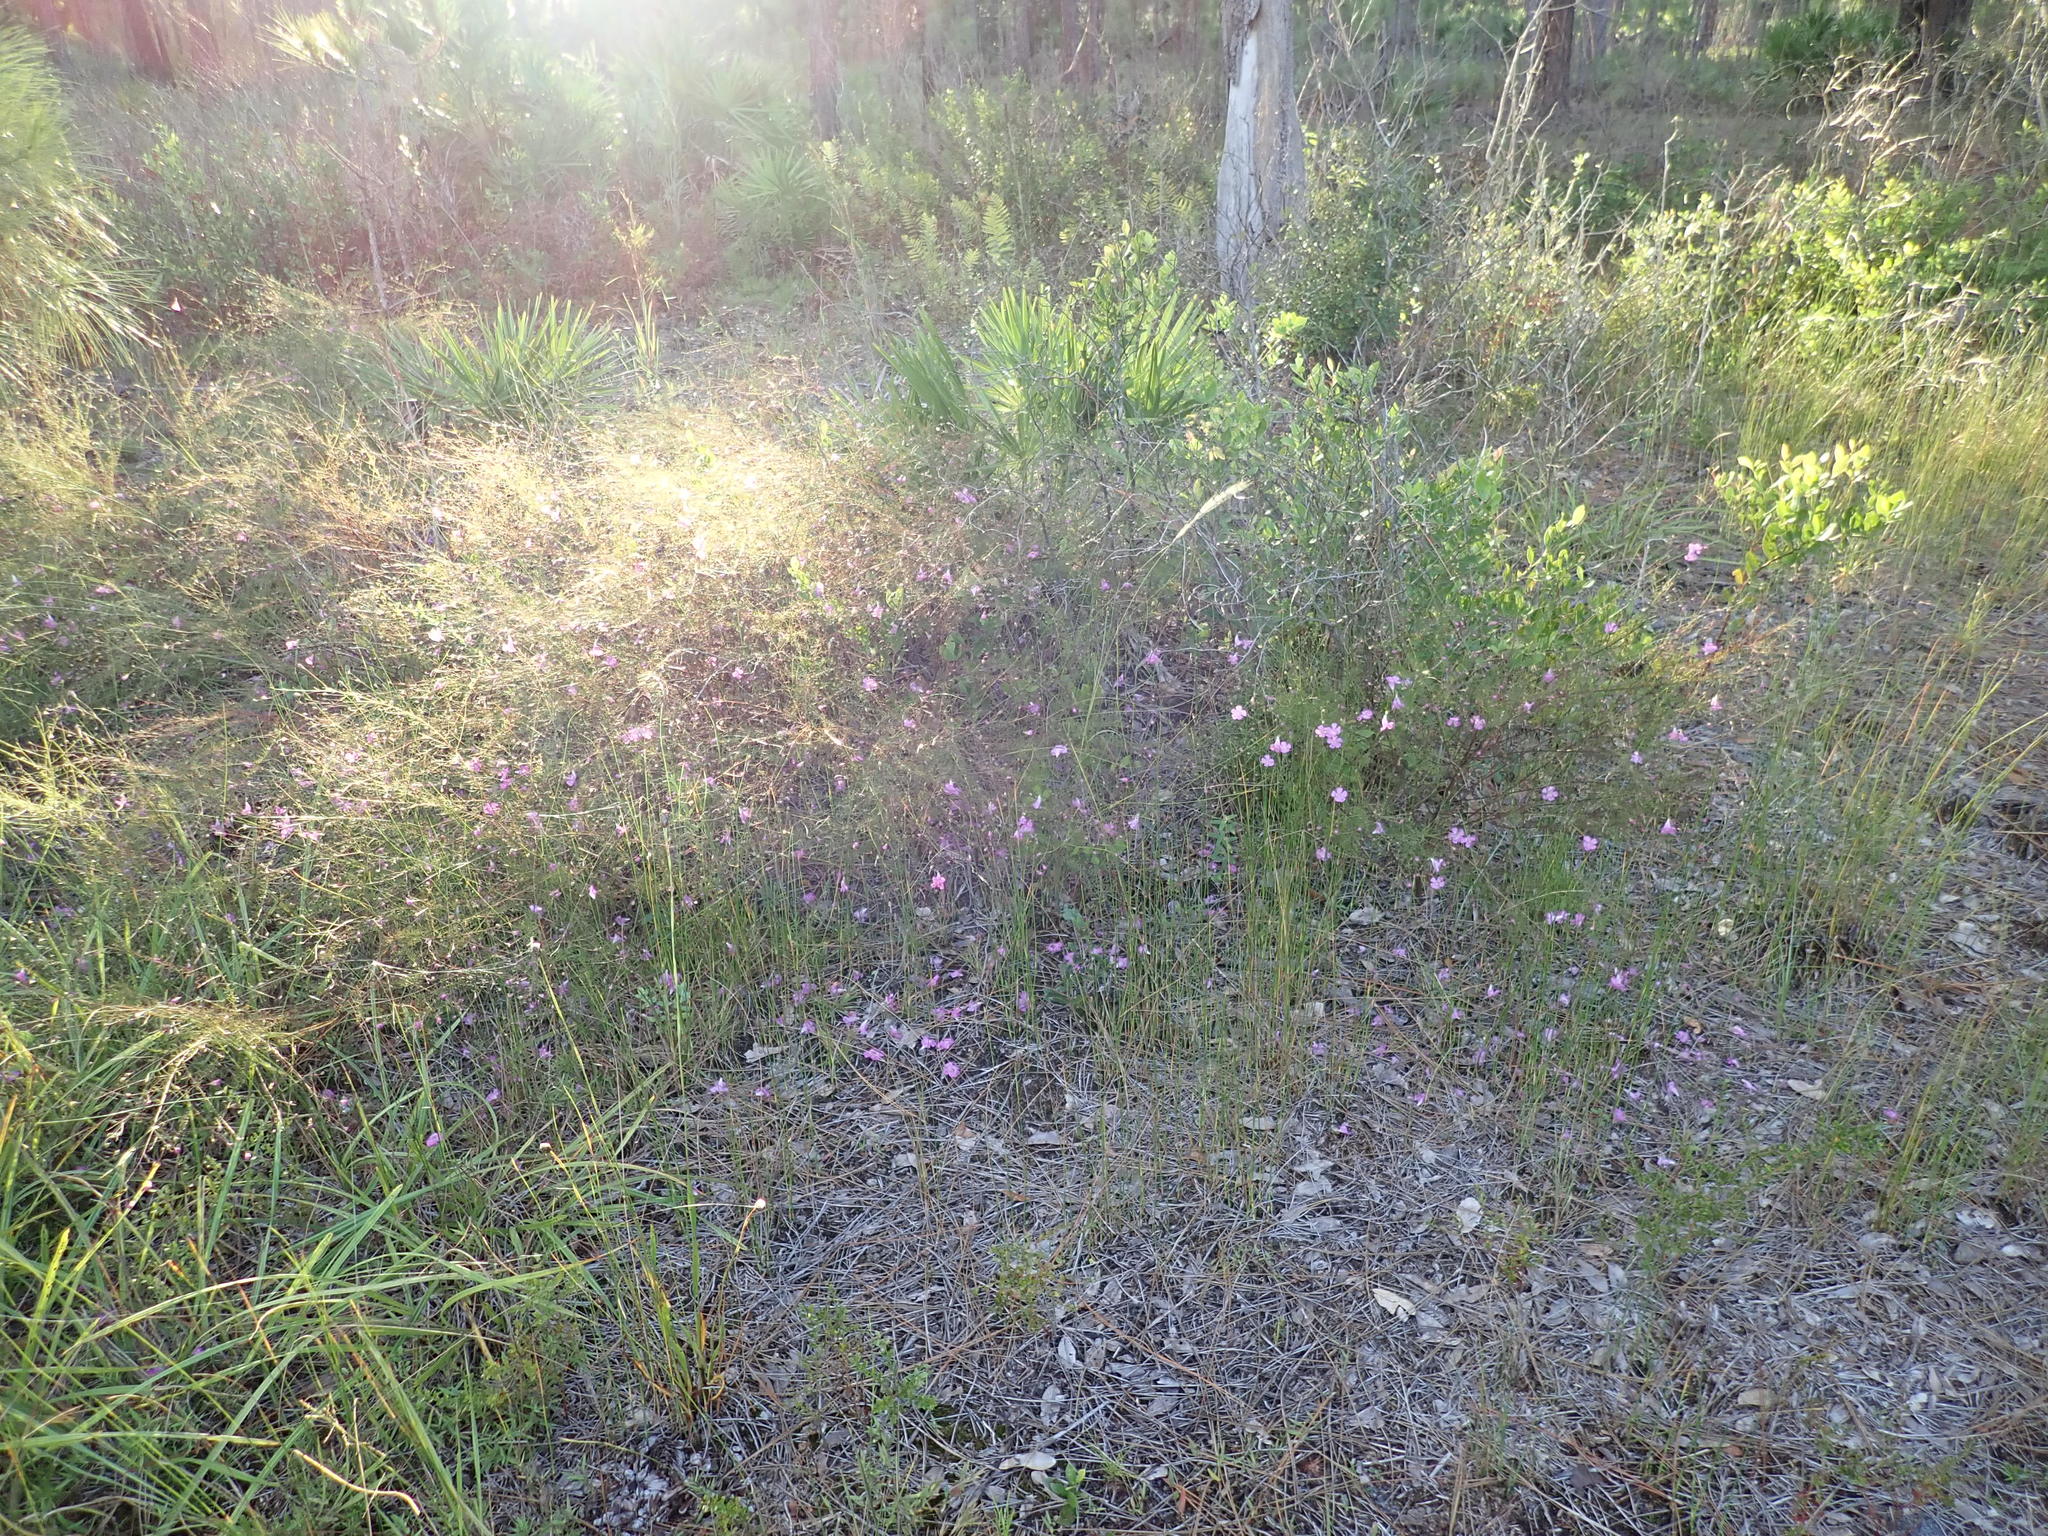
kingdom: Plantae
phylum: Tracheophyta
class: Magnoliopsida
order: Lamiales
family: Orobanchaceae
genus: Agalinis
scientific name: Agalinis filifolia
